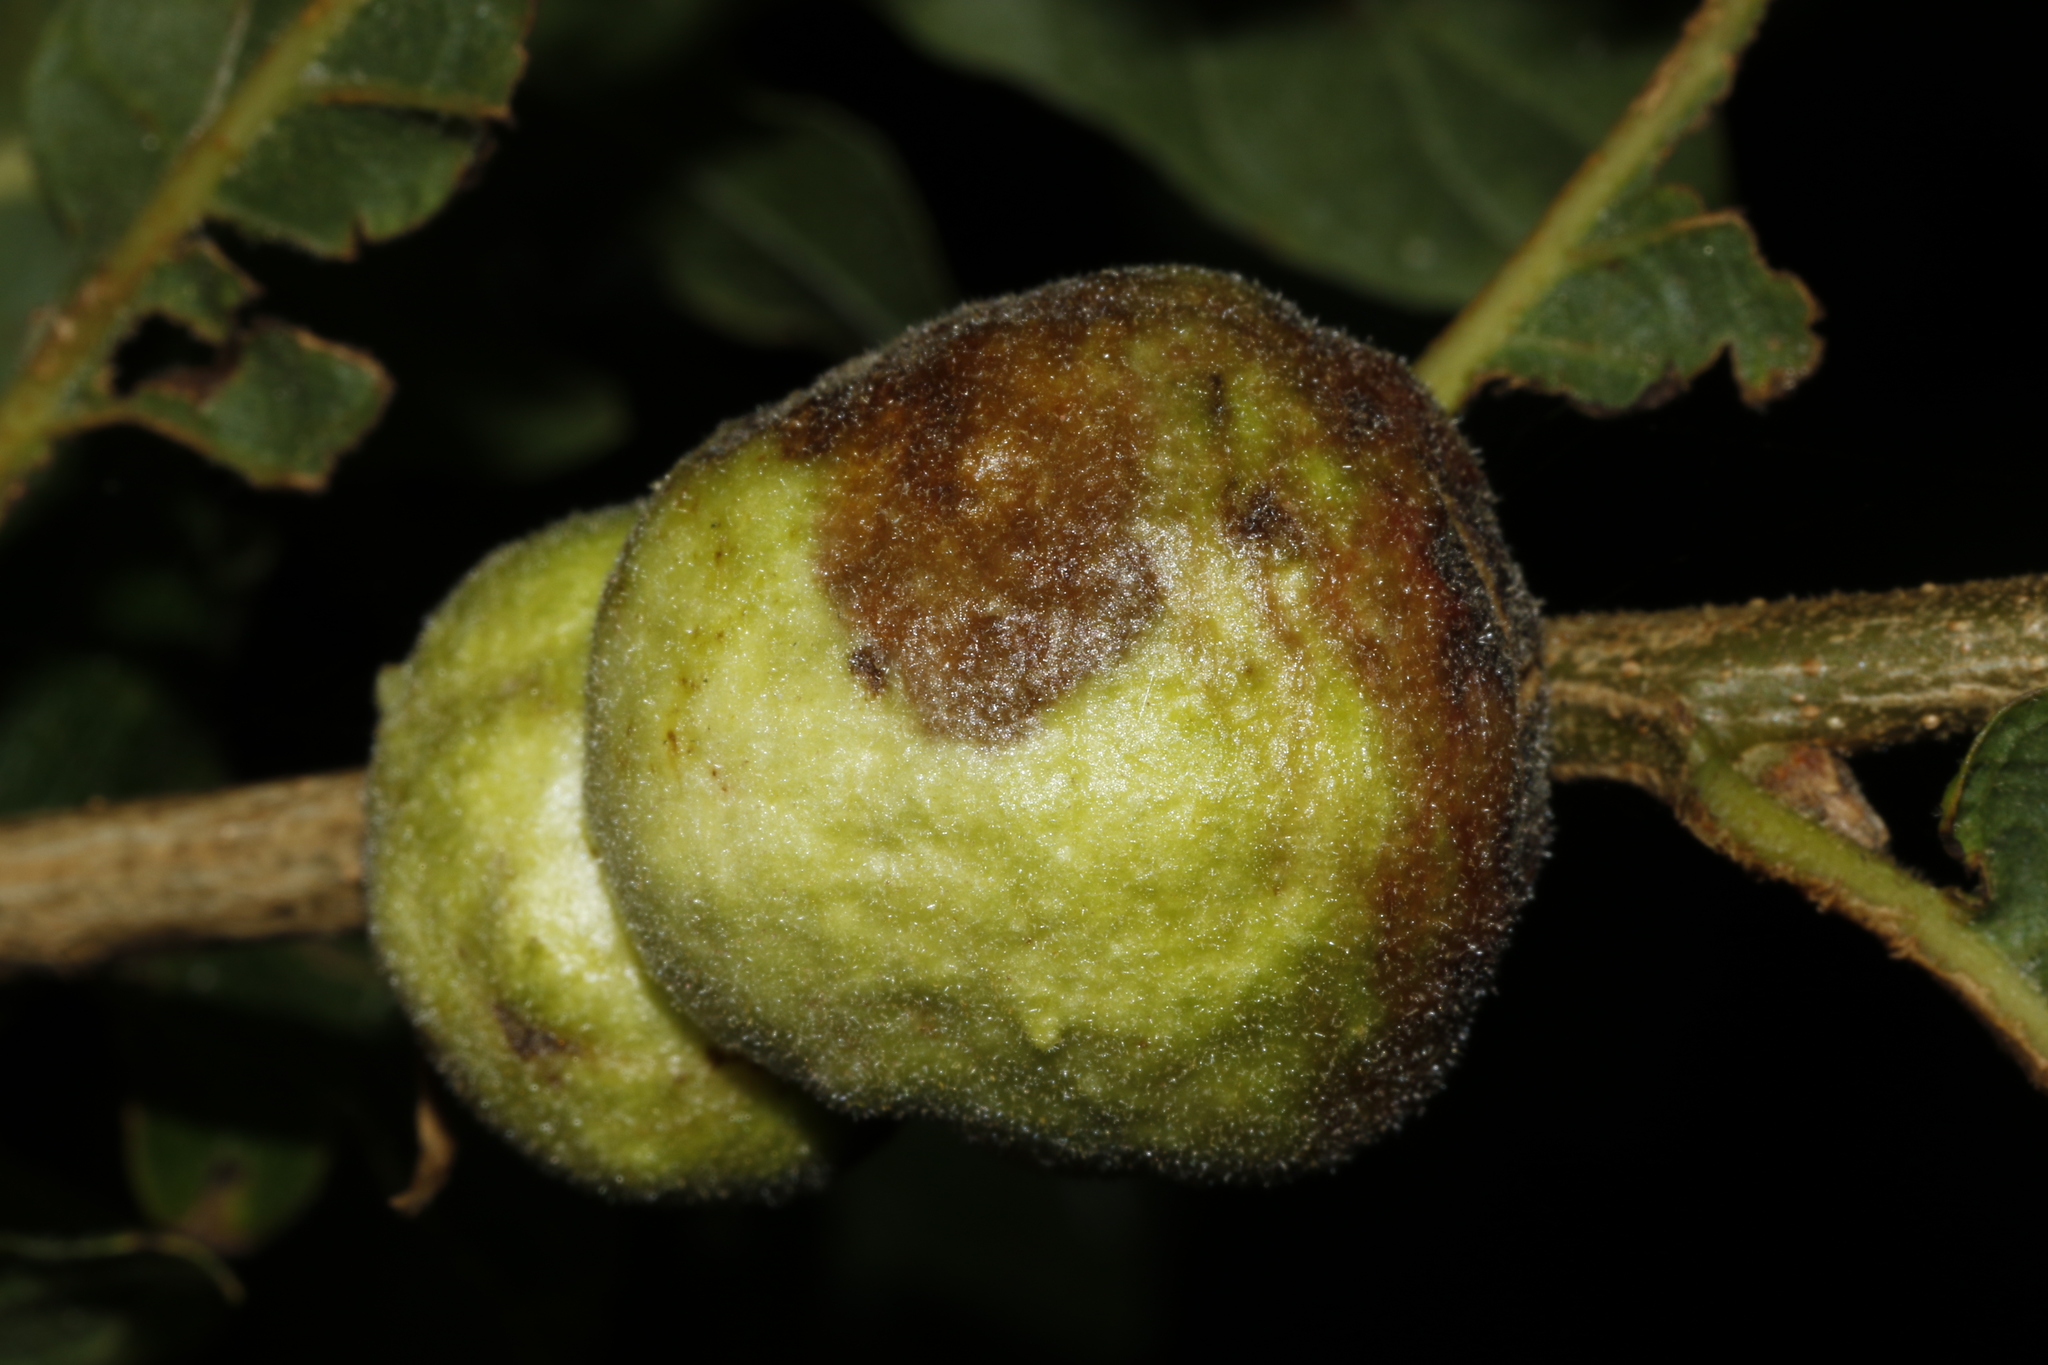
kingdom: Animalia
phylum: Arthropoda
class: Insecta
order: Hymenoptera
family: Cynipidae
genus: Aphelonyx
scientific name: Aphelonyx cerricola
